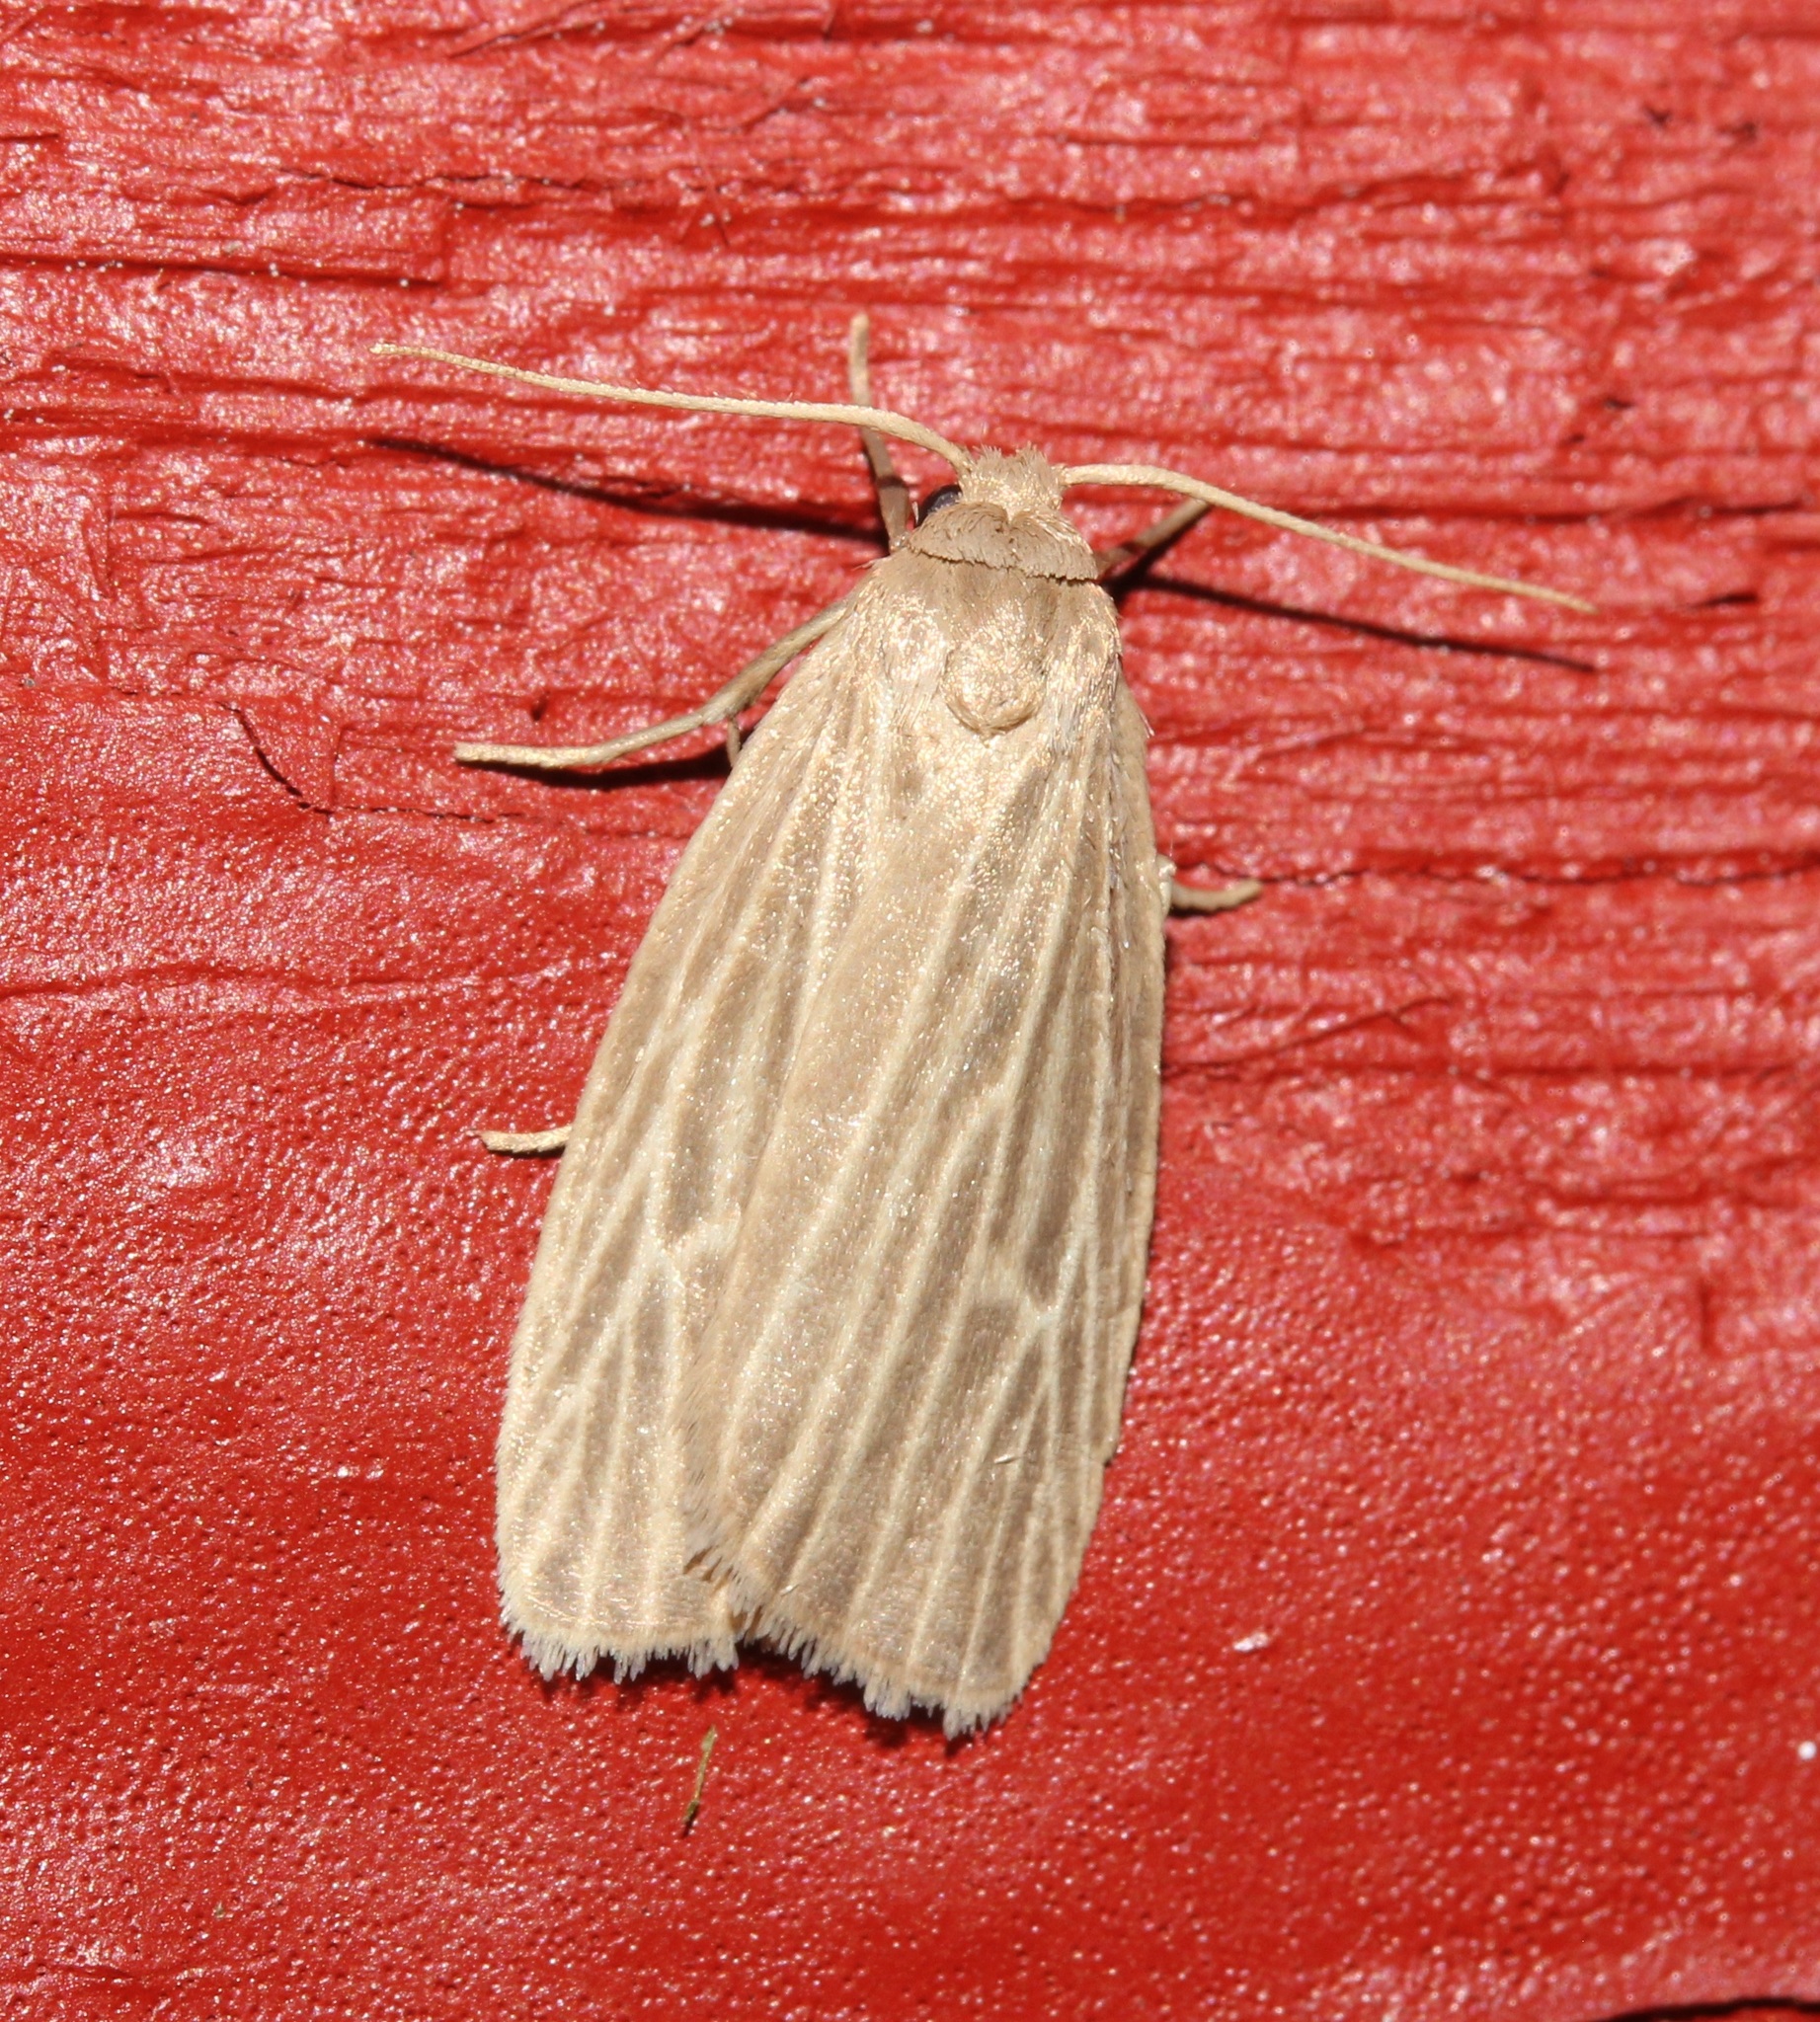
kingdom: Animalia
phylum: Arthropoda
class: Insecta
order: Lepidoptera
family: Erebidae
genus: Crambidia
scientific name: Crambidia pallida
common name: Pale lichen moth
